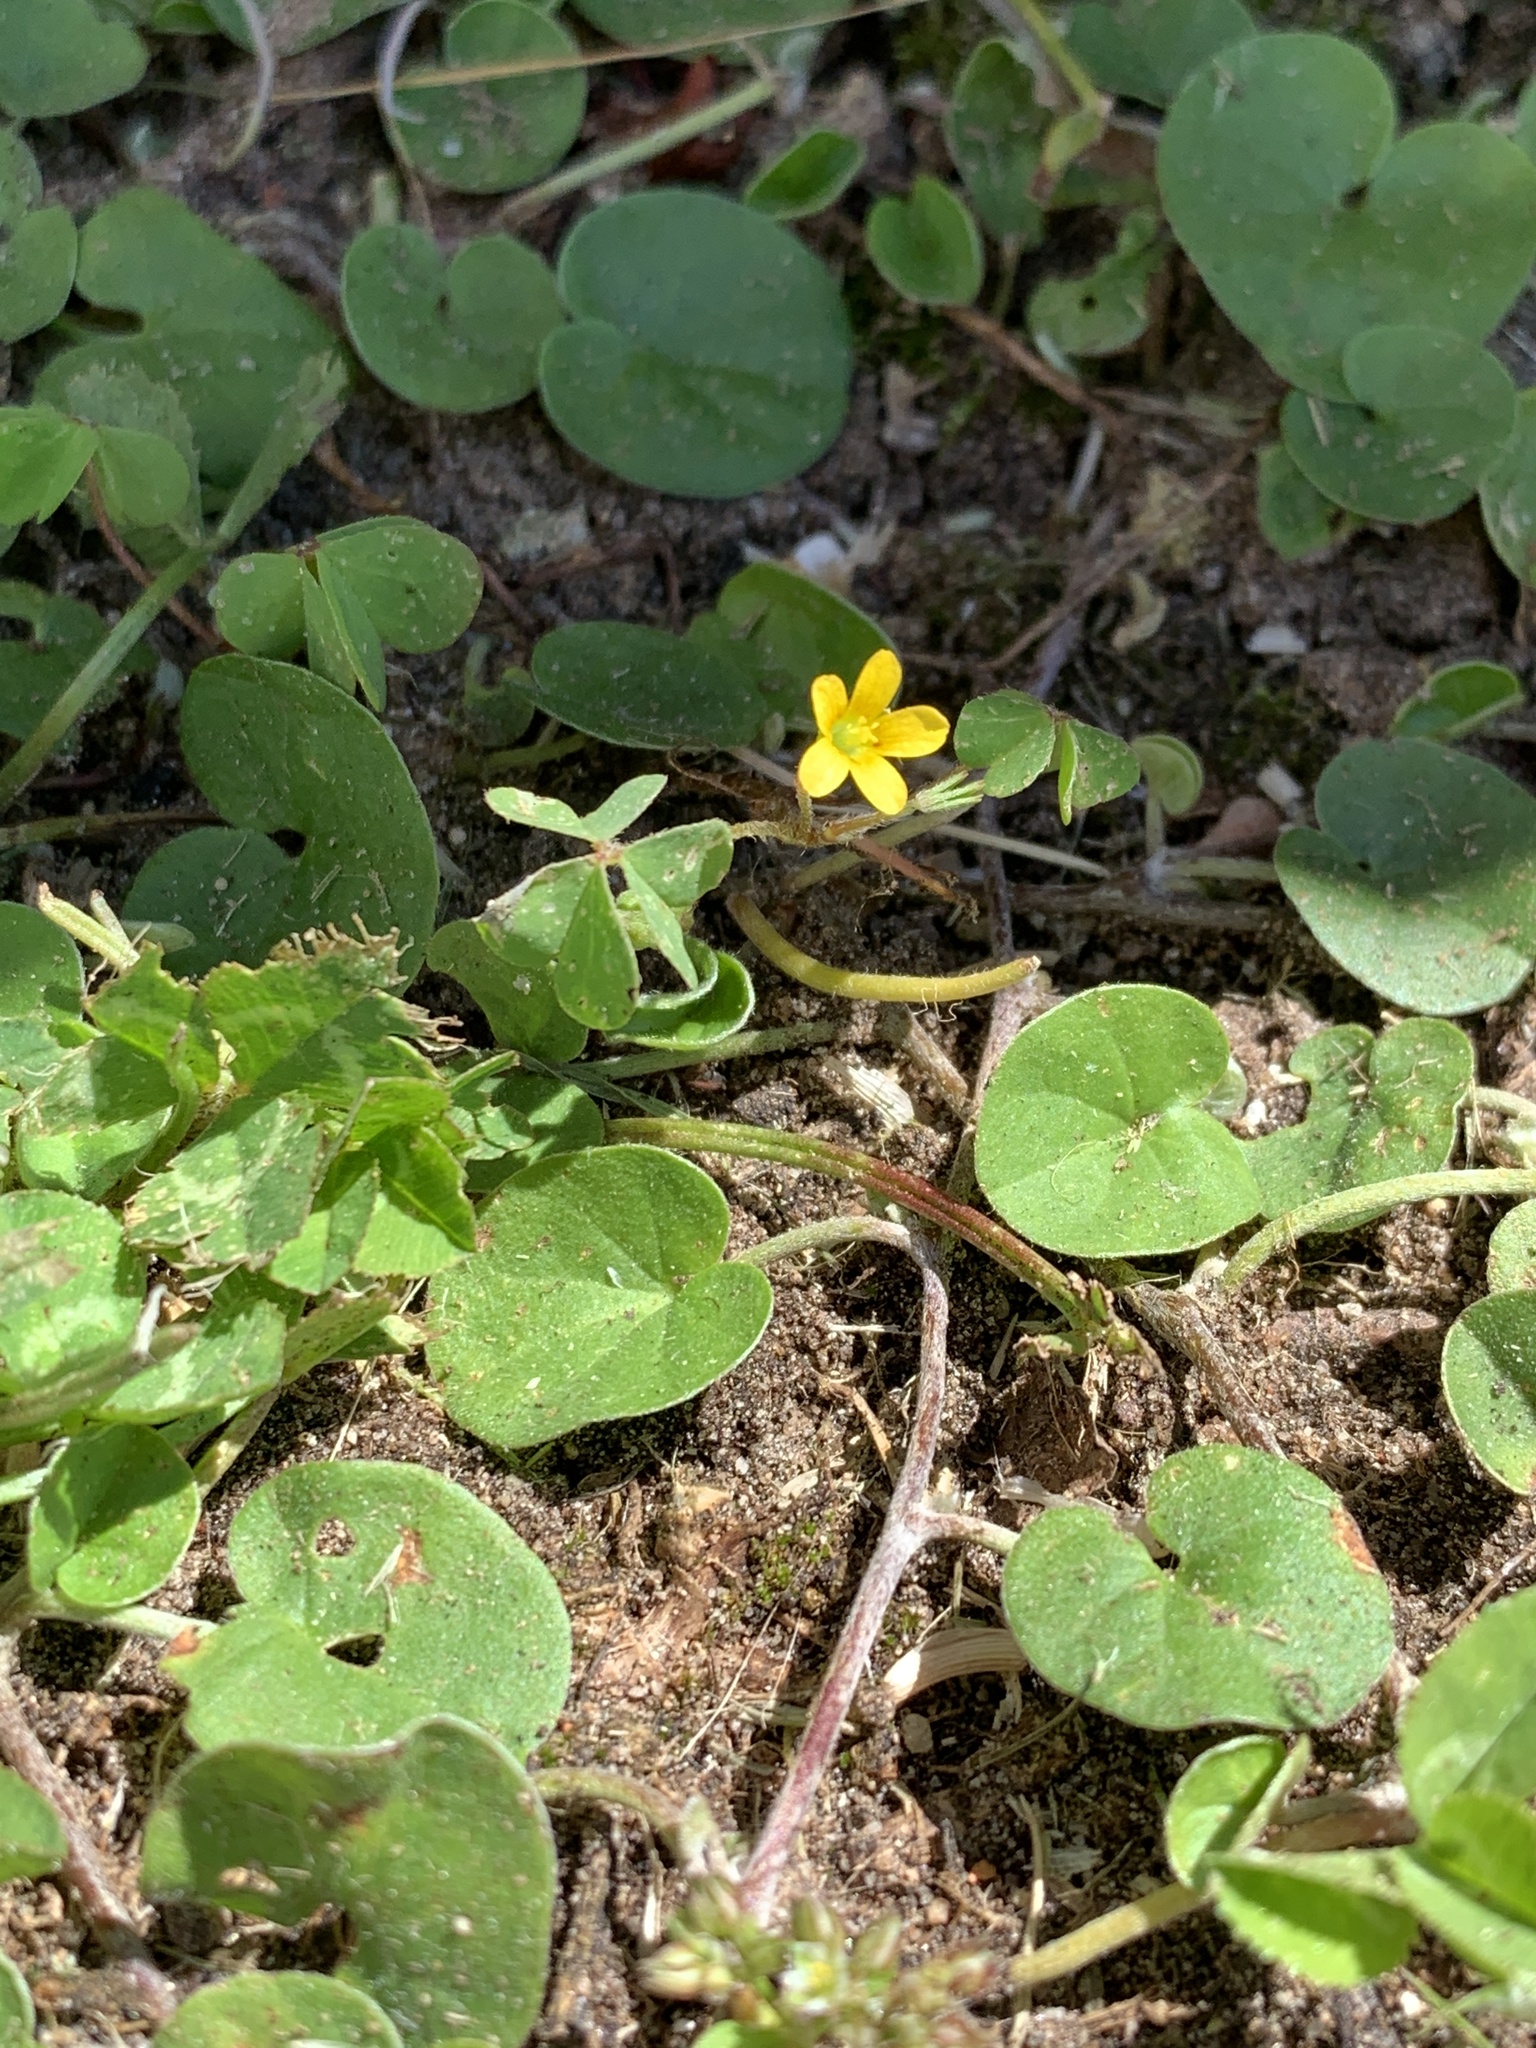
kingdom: Plantae
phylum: Tracheophyta
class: Magnoliopsida
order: Oxalidales
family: Oxalidaceae
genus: Oxalis
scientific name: Oxalis corniculata
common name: Procumbent yellow-sorrel
